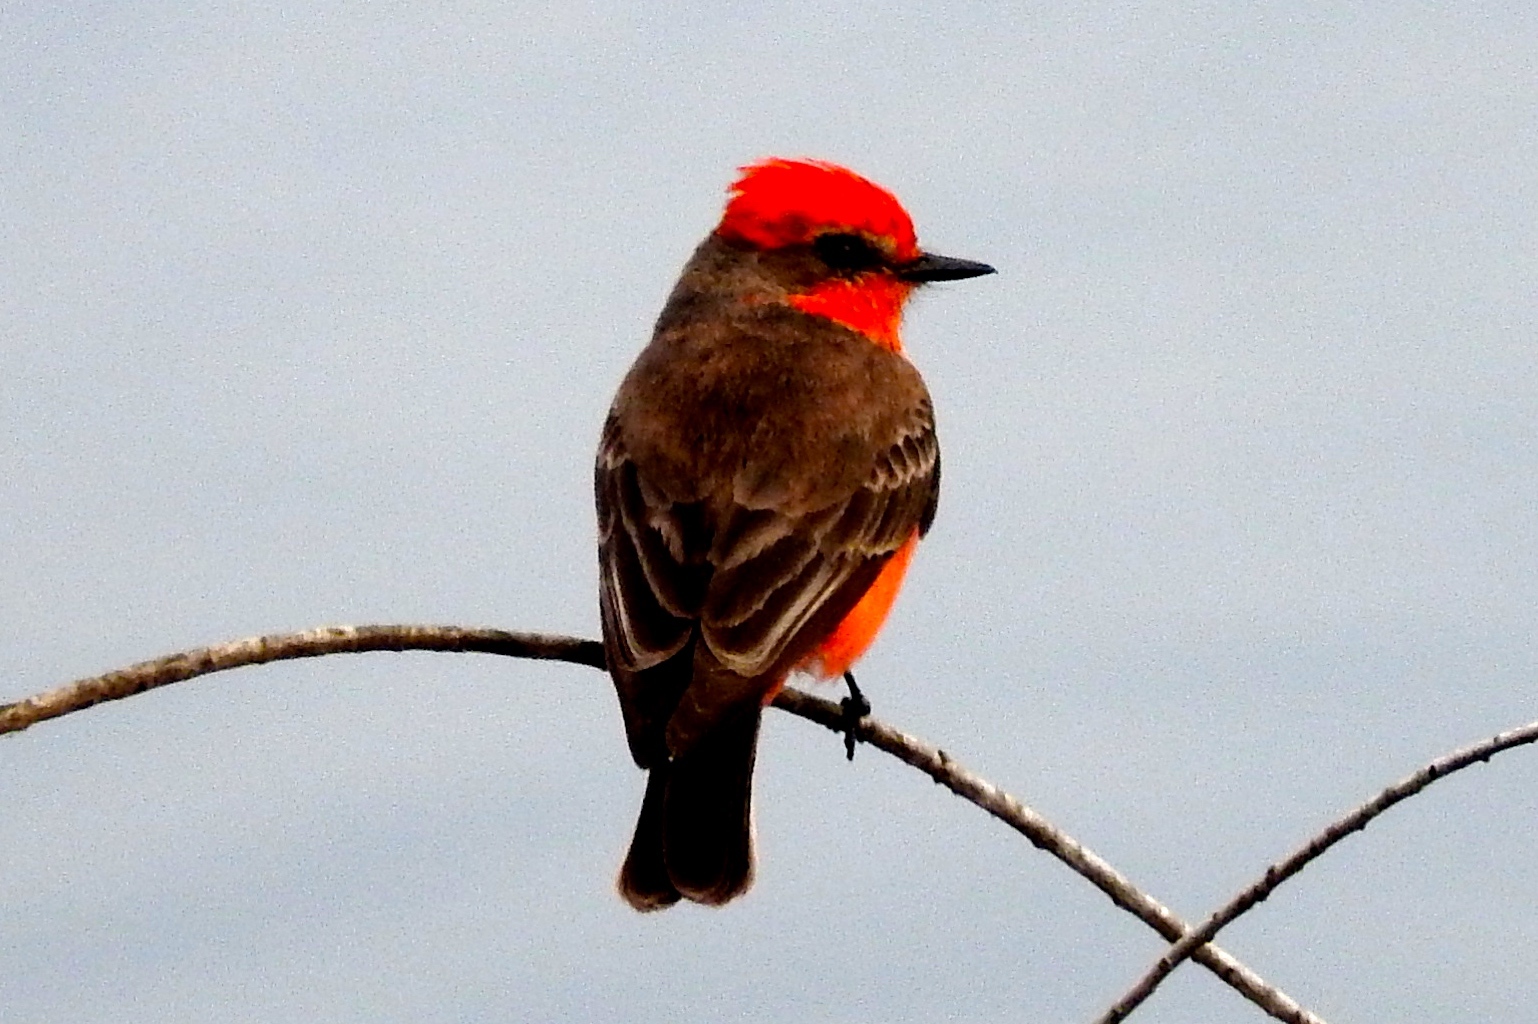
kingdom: Animalia
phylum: Chordata
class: Aves
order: Passeriformes
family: Tyrannidae
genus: Pyrocephalus
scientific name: Pyrocephalus rubinus
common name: Vermilion flycatcher
